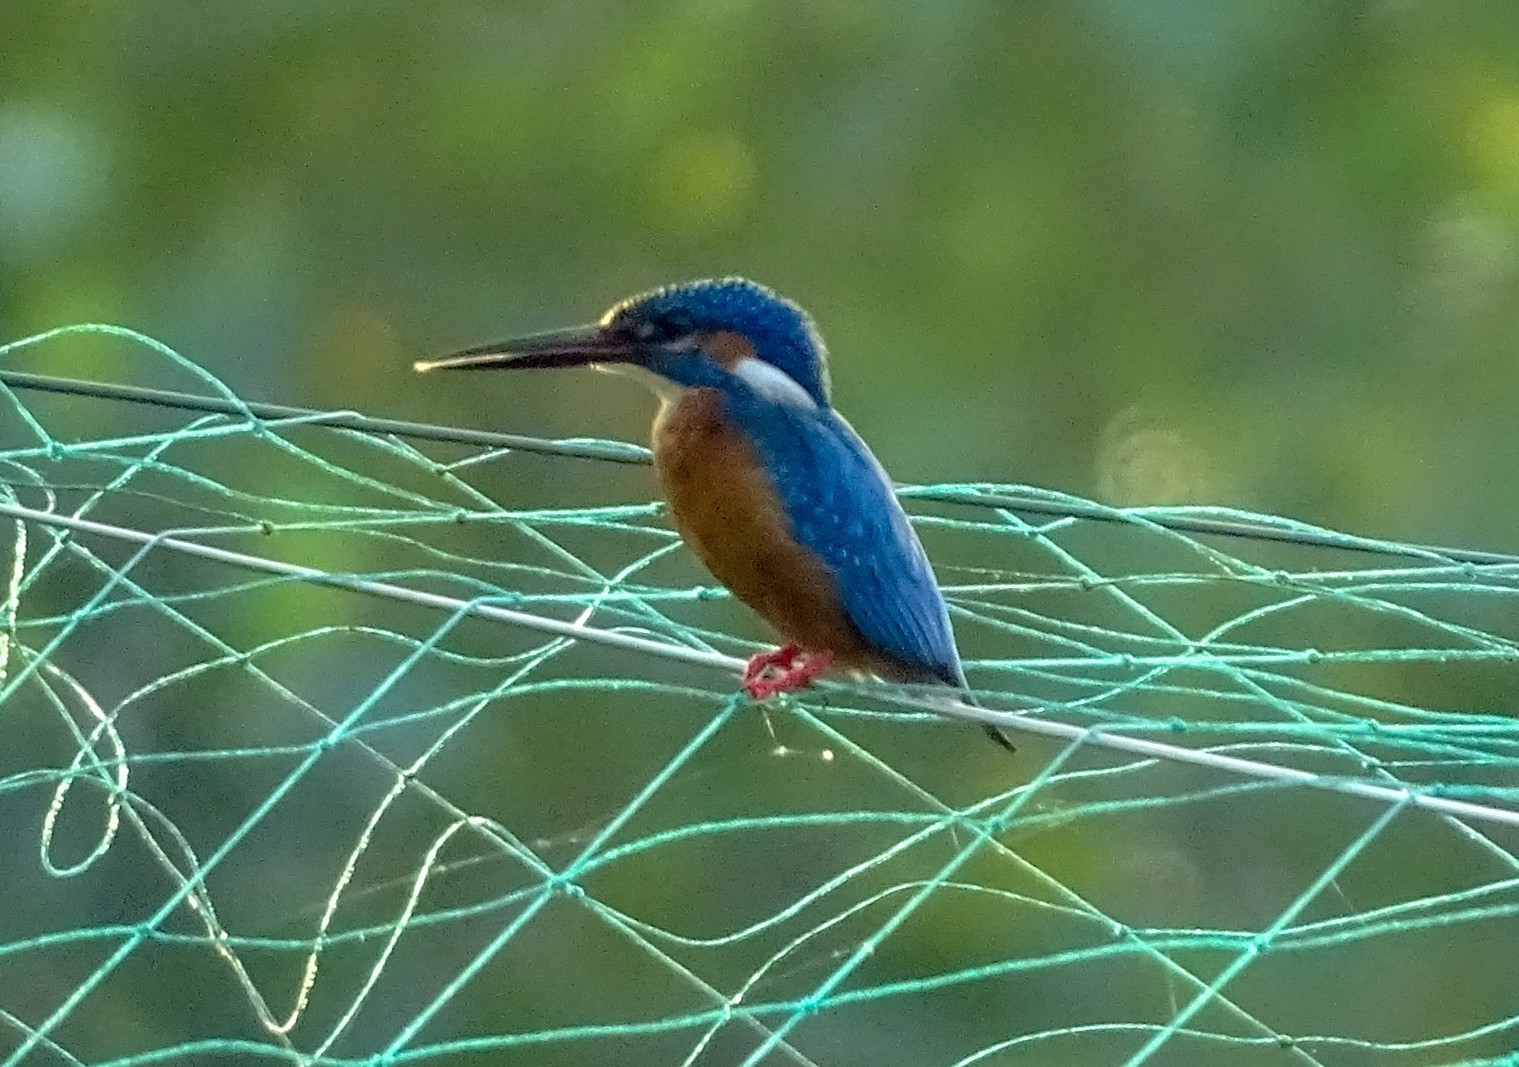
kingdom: Animalia
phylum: Chordata
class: Aves
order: Coraciiformes
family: Alcedinidae
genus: Alcedo
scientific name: Alcedo atthis
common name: Common kingfisher
